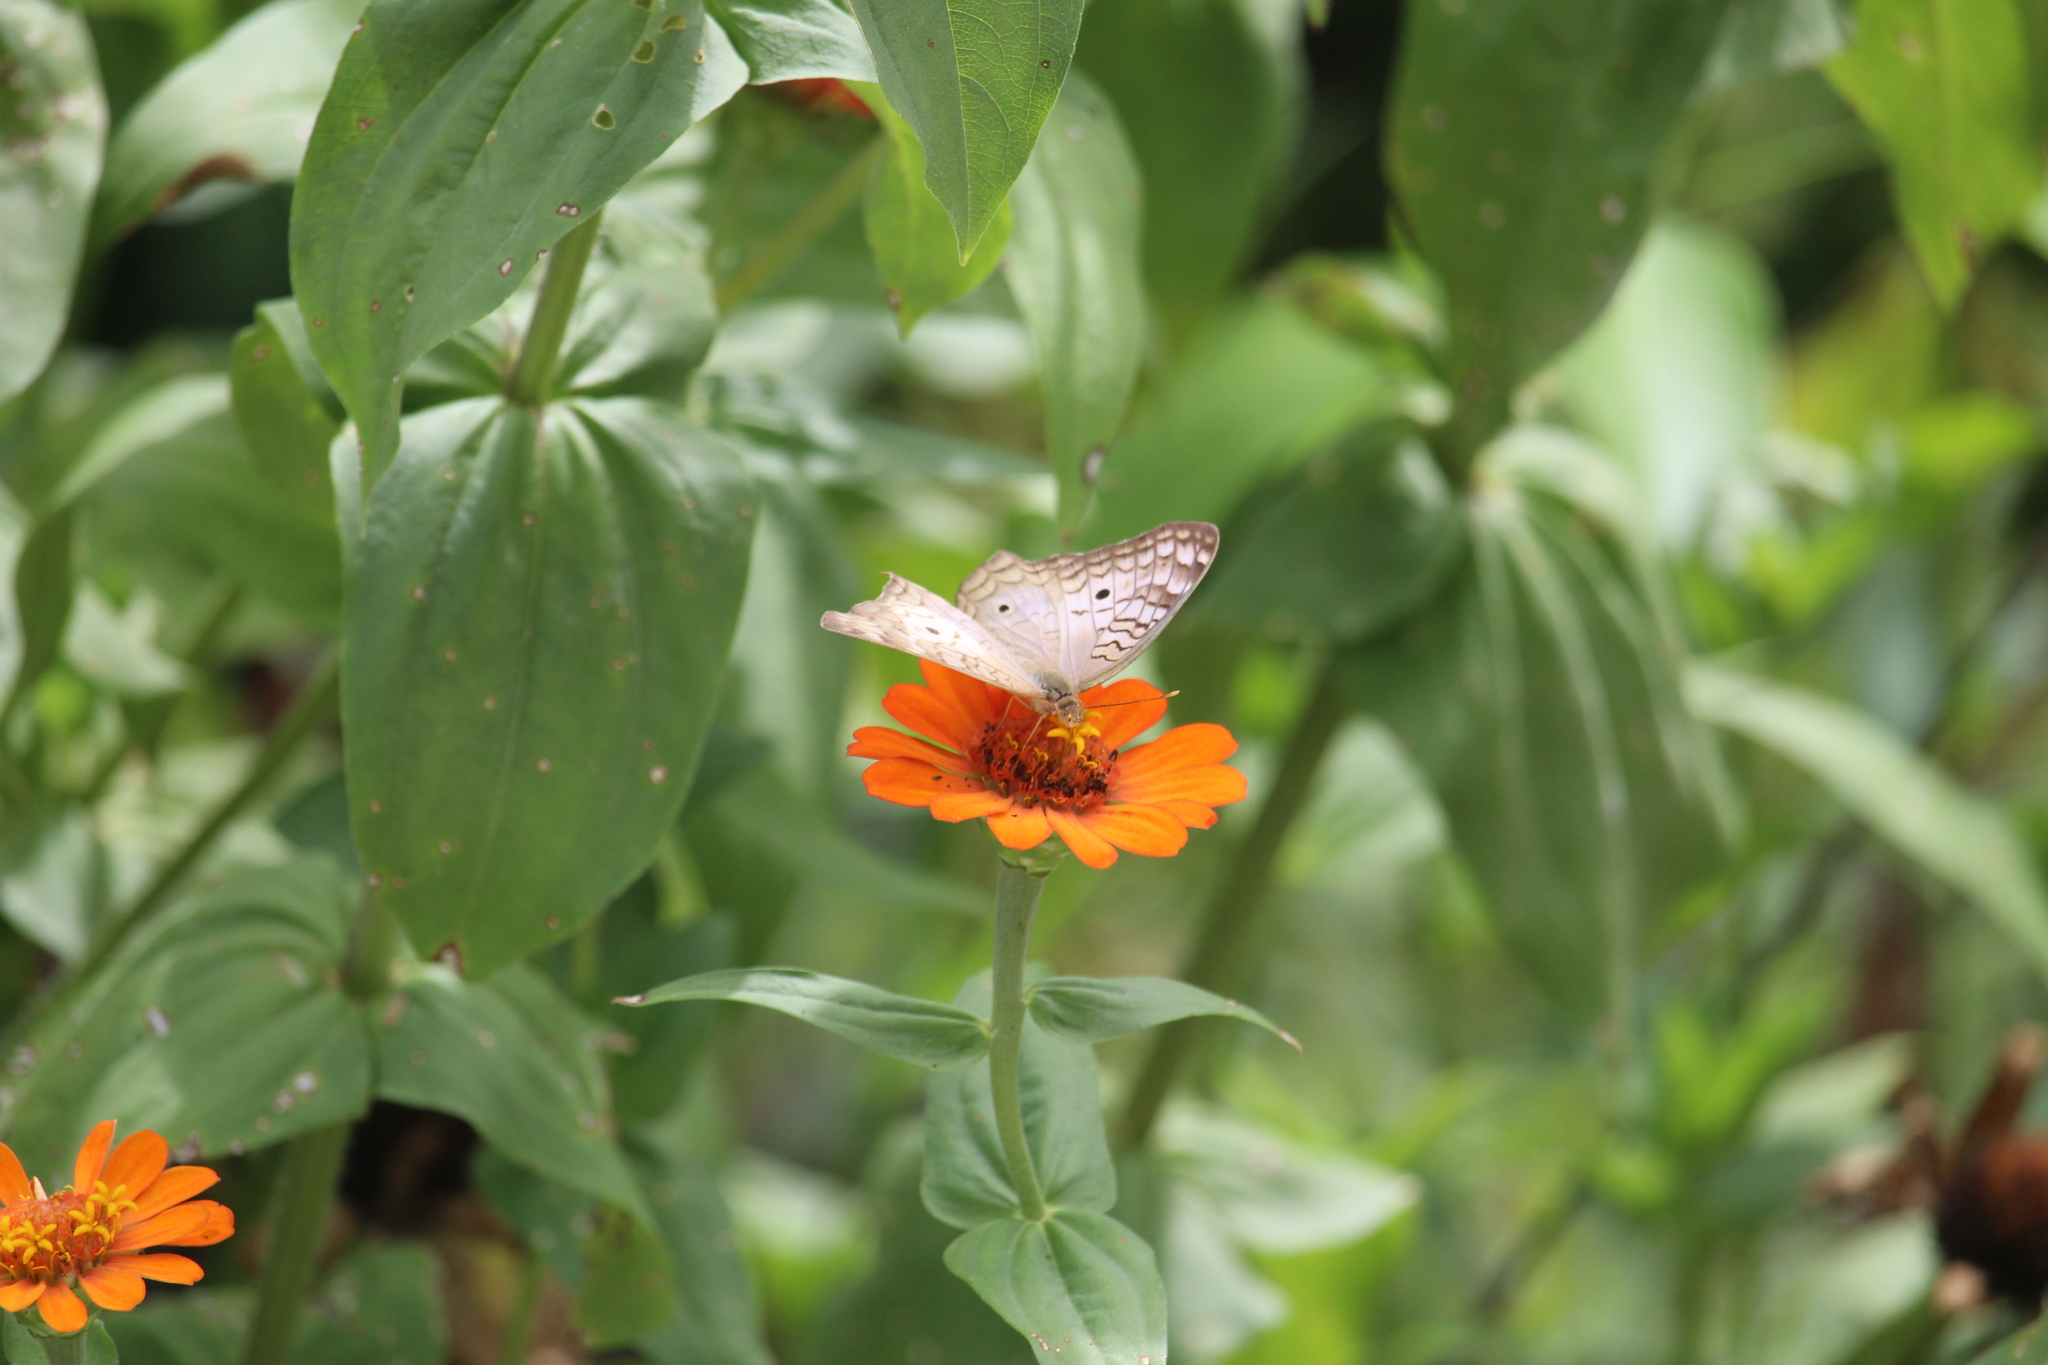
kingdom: Animalia
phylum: Arthropoda
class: Insecta
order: Lepidoptera
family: Nymphalidae
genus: Anartia
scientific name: Anartia jatrophae
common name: White peacock
